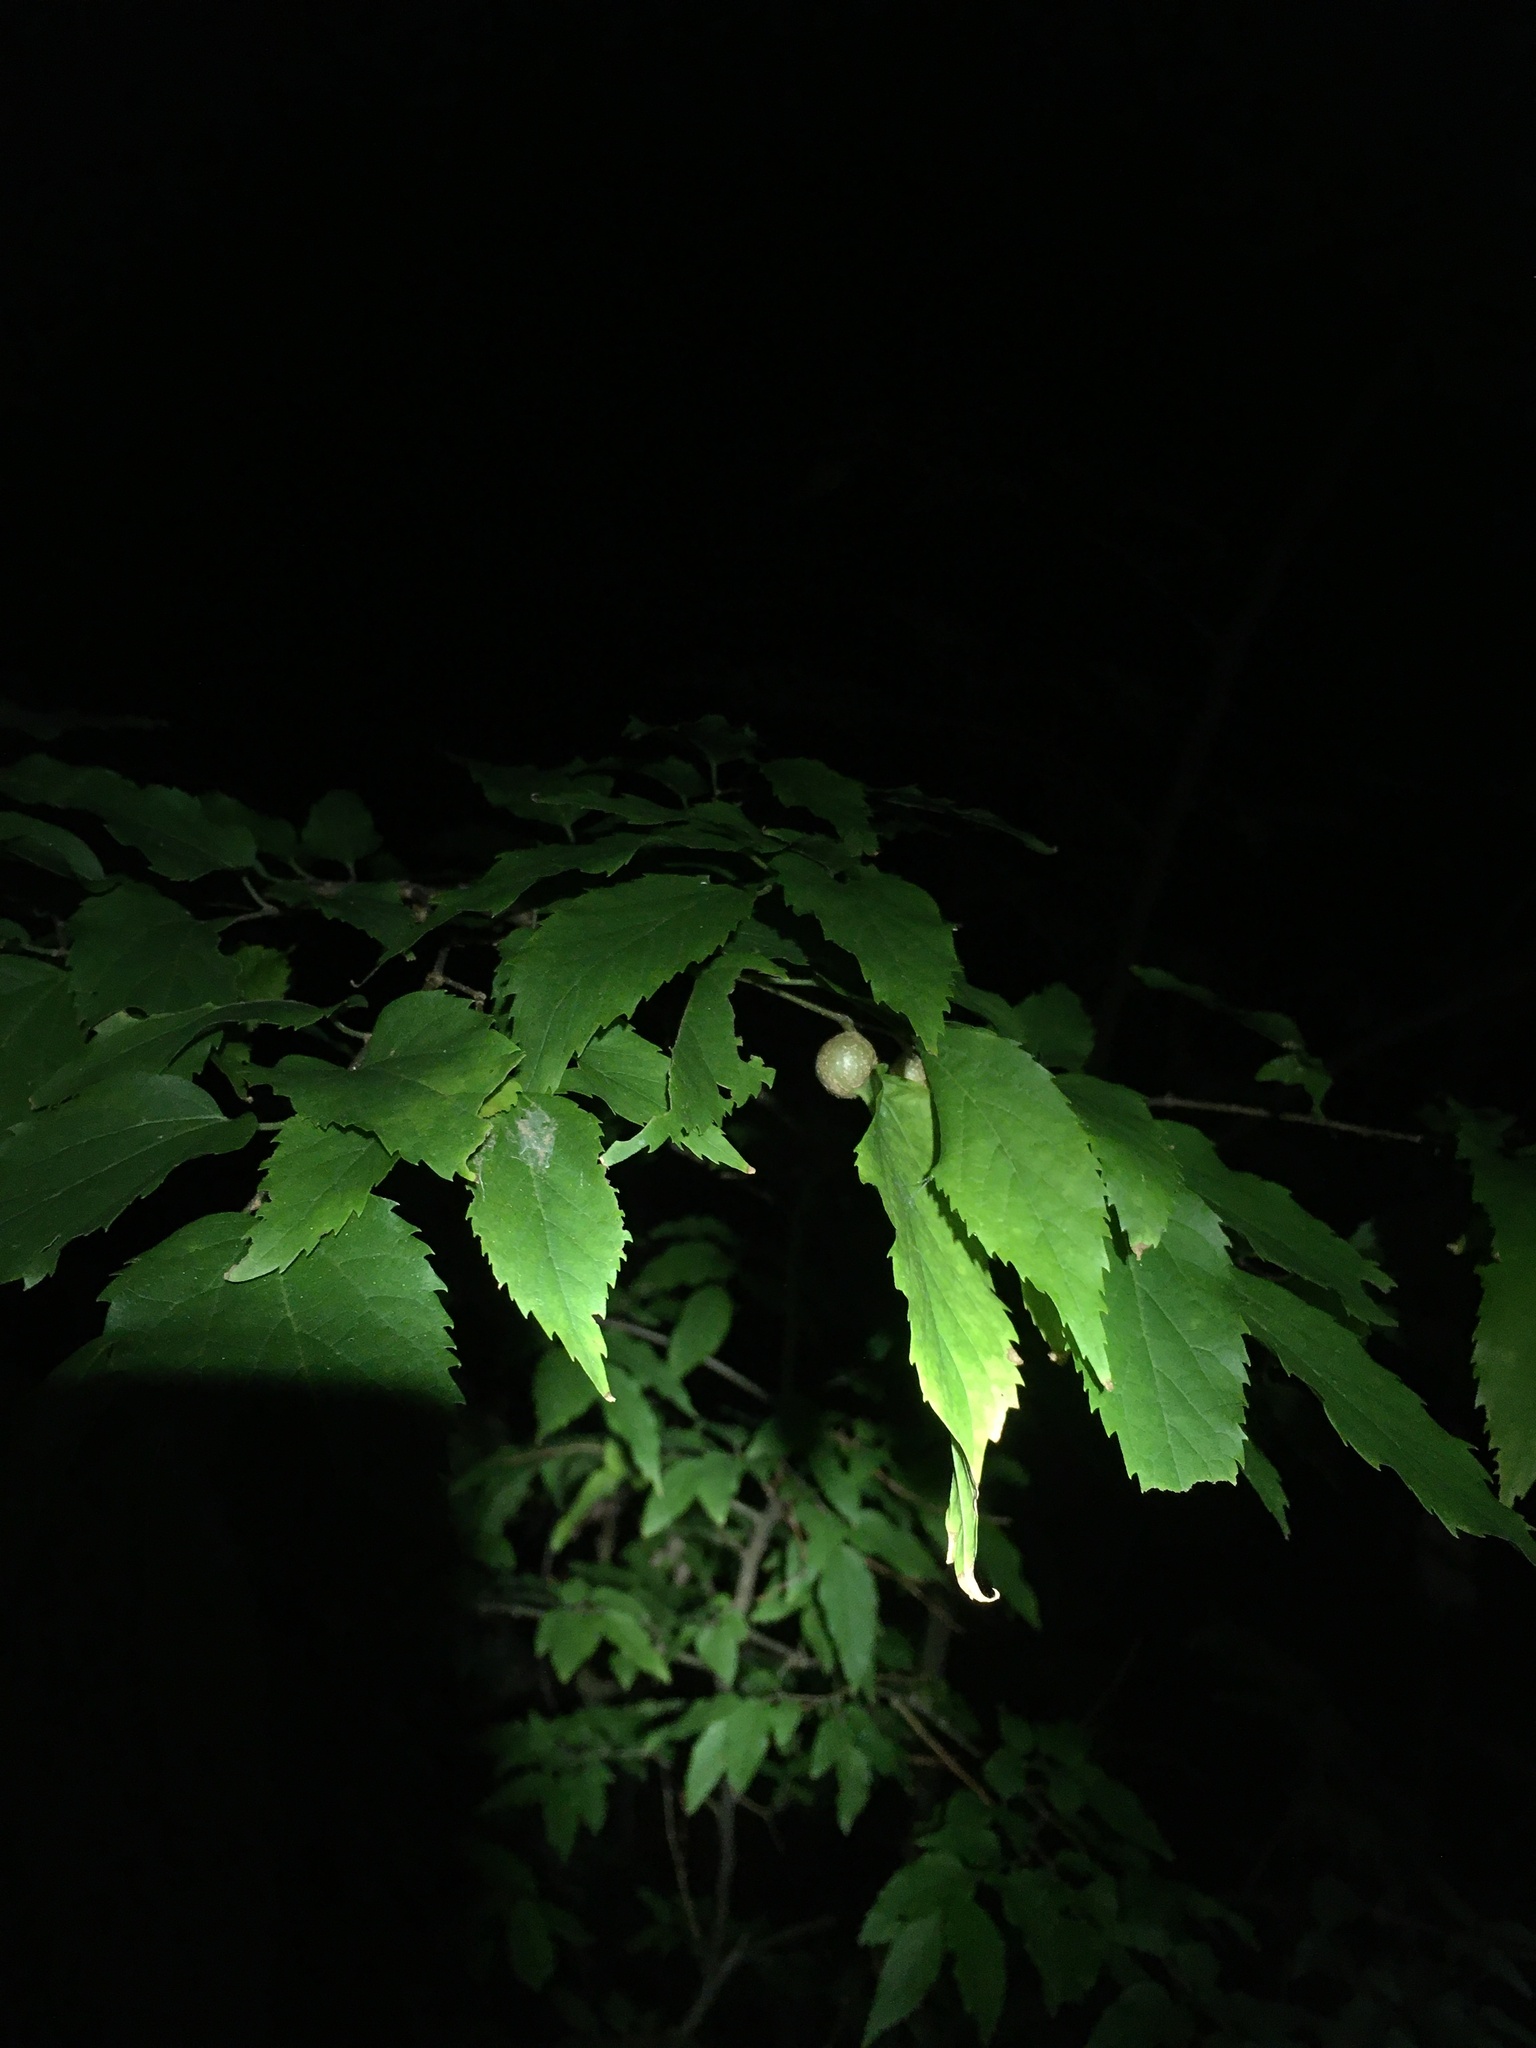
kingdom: Animalia
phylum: Arthropoda
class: Insecta
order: Hemiptera
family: Aphalaridae
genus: Pachypsylla
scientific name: Pachypsylla venusta
